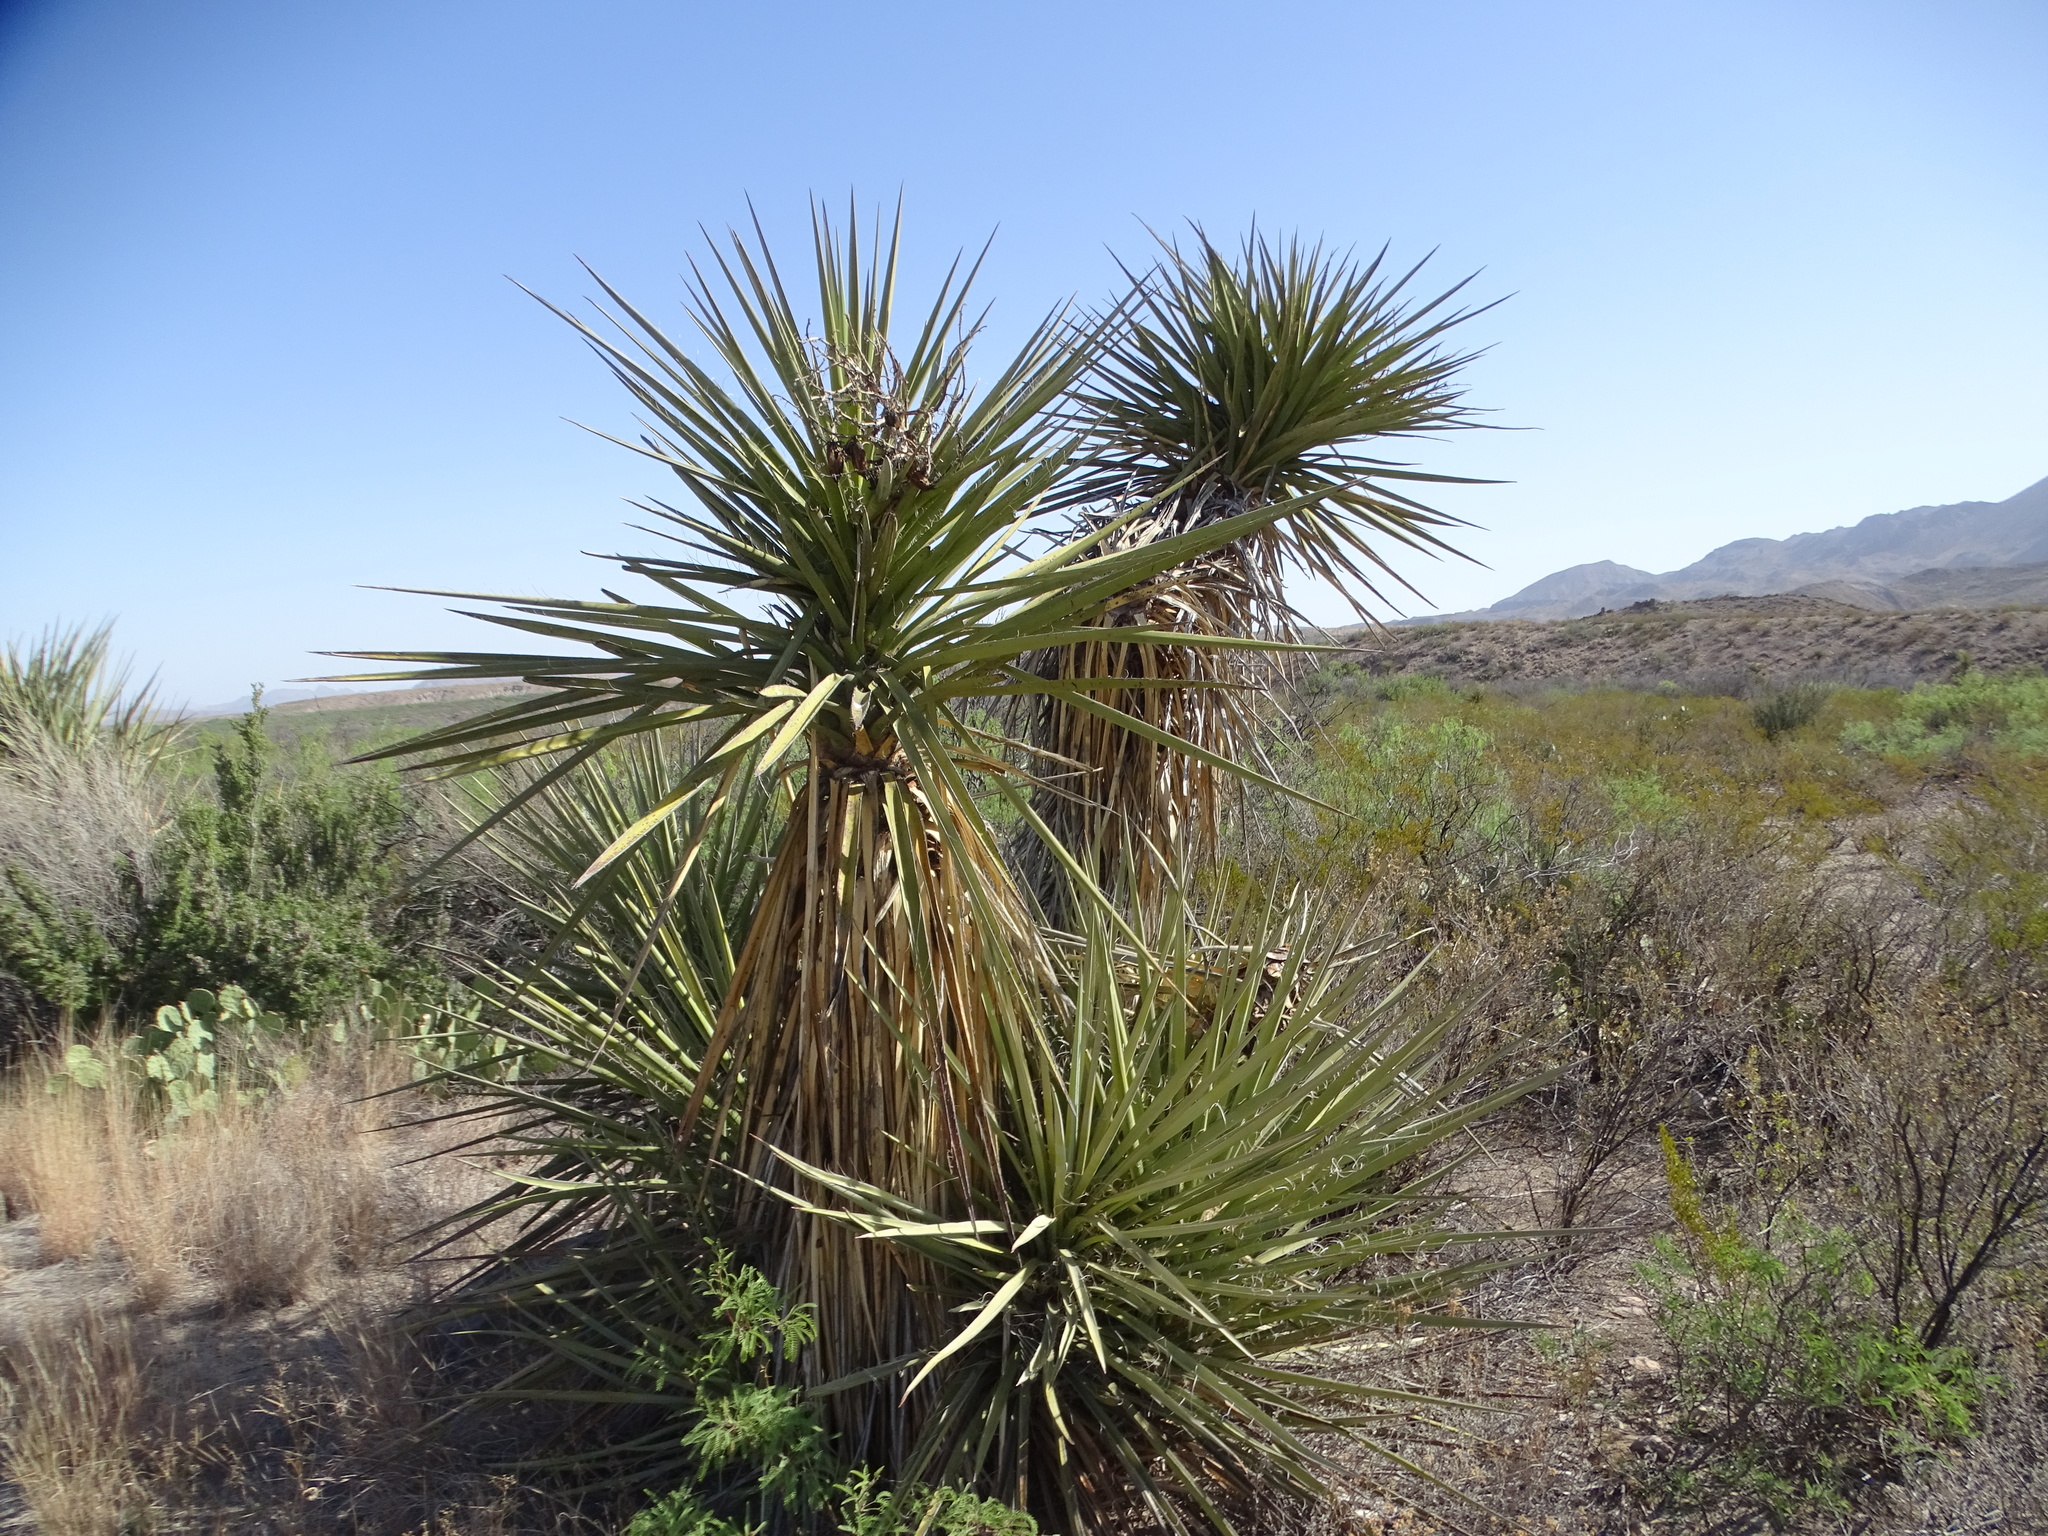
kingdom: Plantae
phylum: Tracheophyta
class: Liliopsida
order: Asparagales
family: Asparagaceae
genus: Yucca
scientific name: Yucca treculiana
